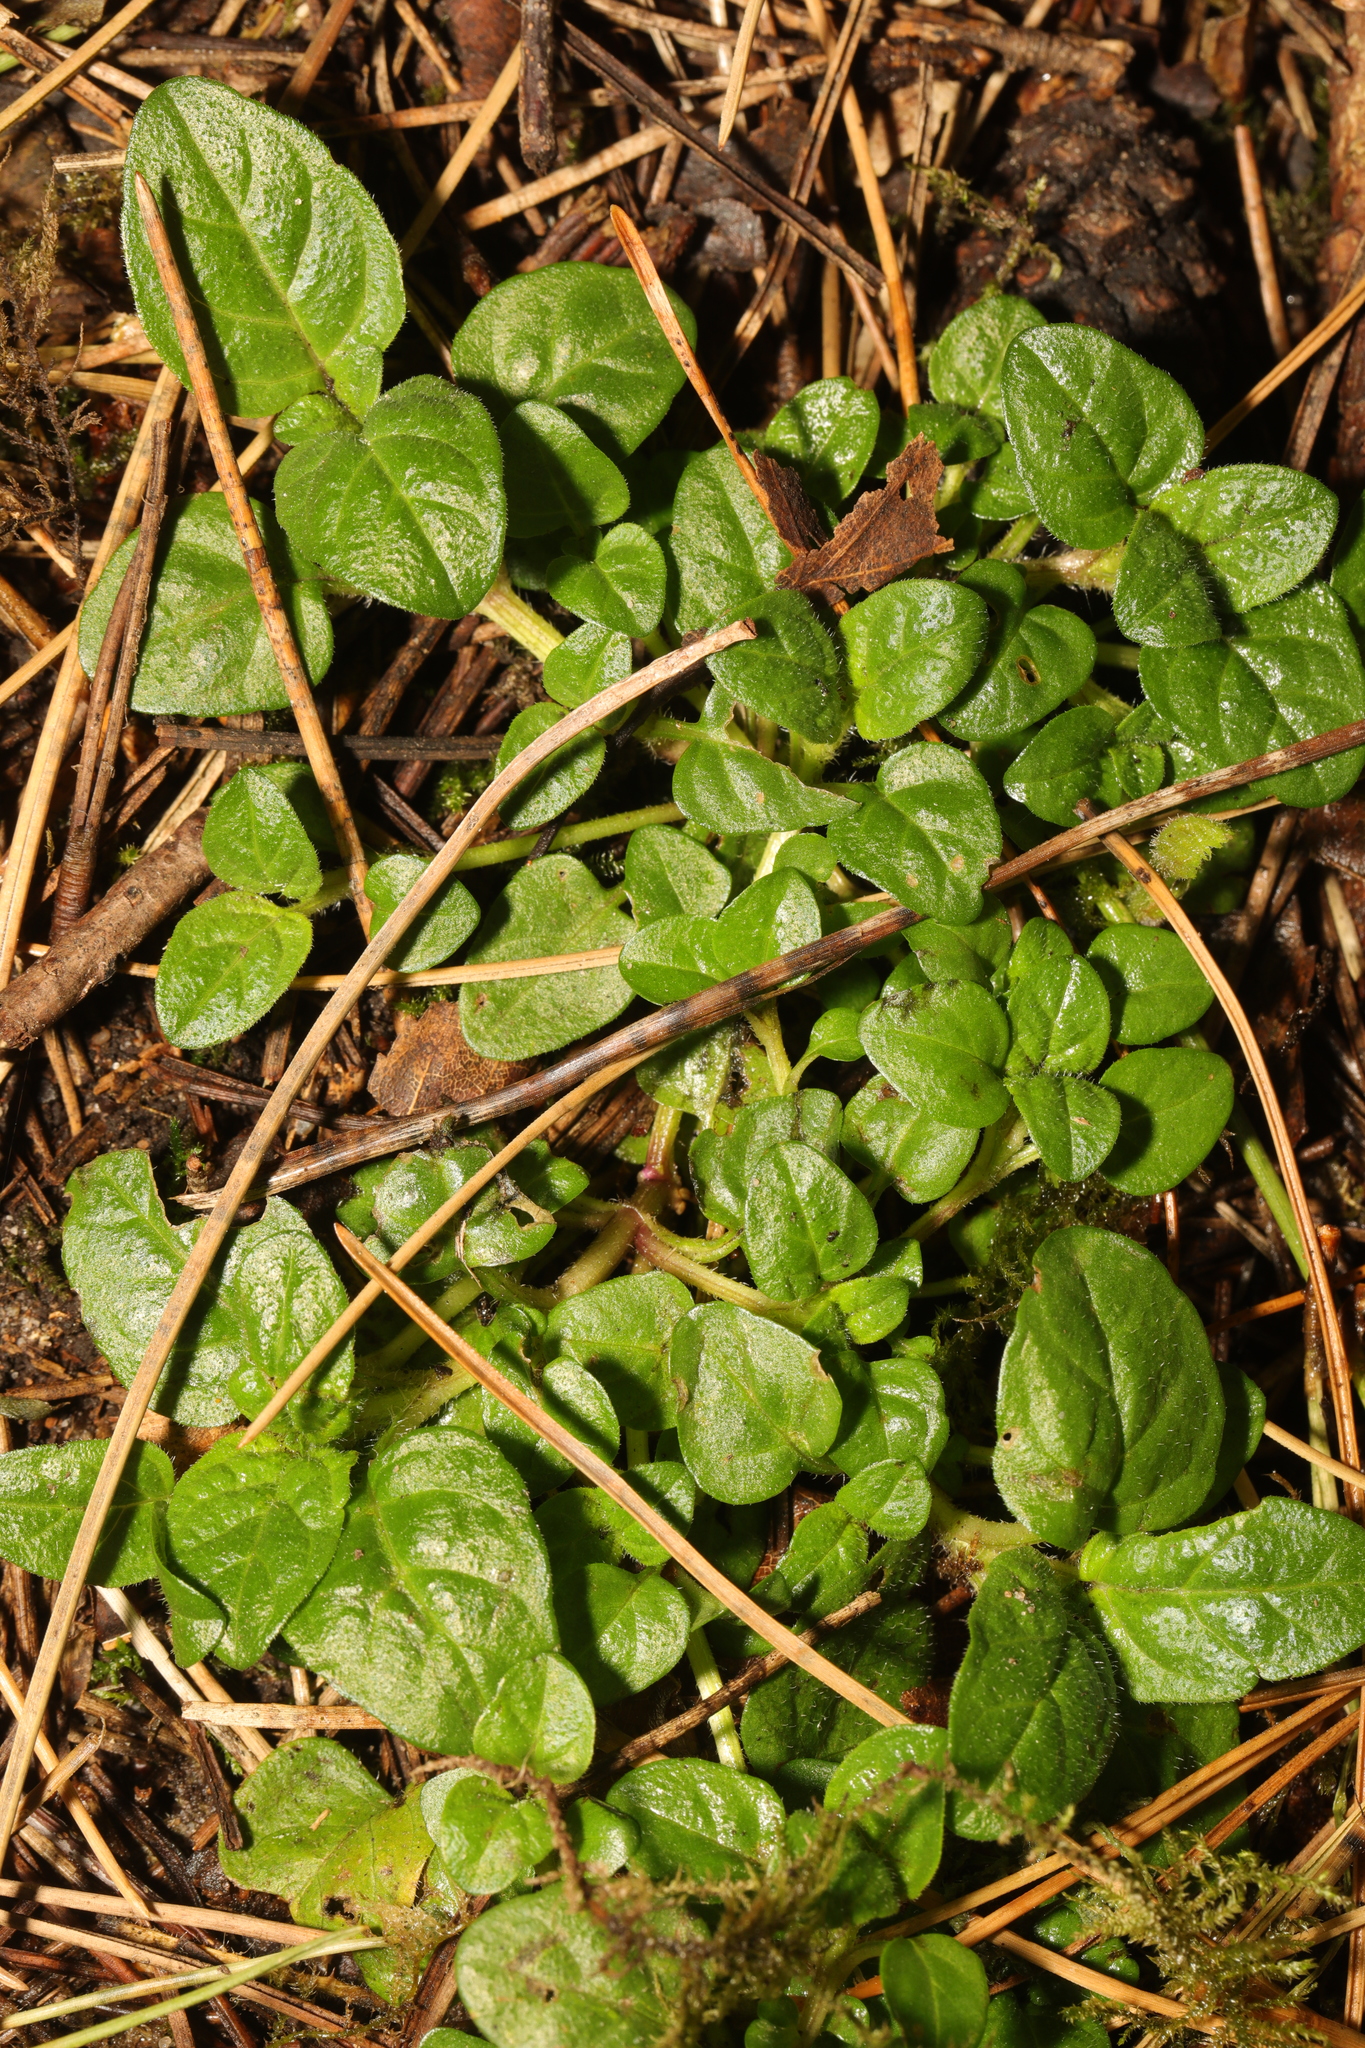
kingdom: Plantae
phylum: Tracheophyta
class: Magnoliopsida
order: Lamiales
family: Lamiaceae
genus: Prunella
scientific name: Prunella vulgaris
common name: Heal-all
